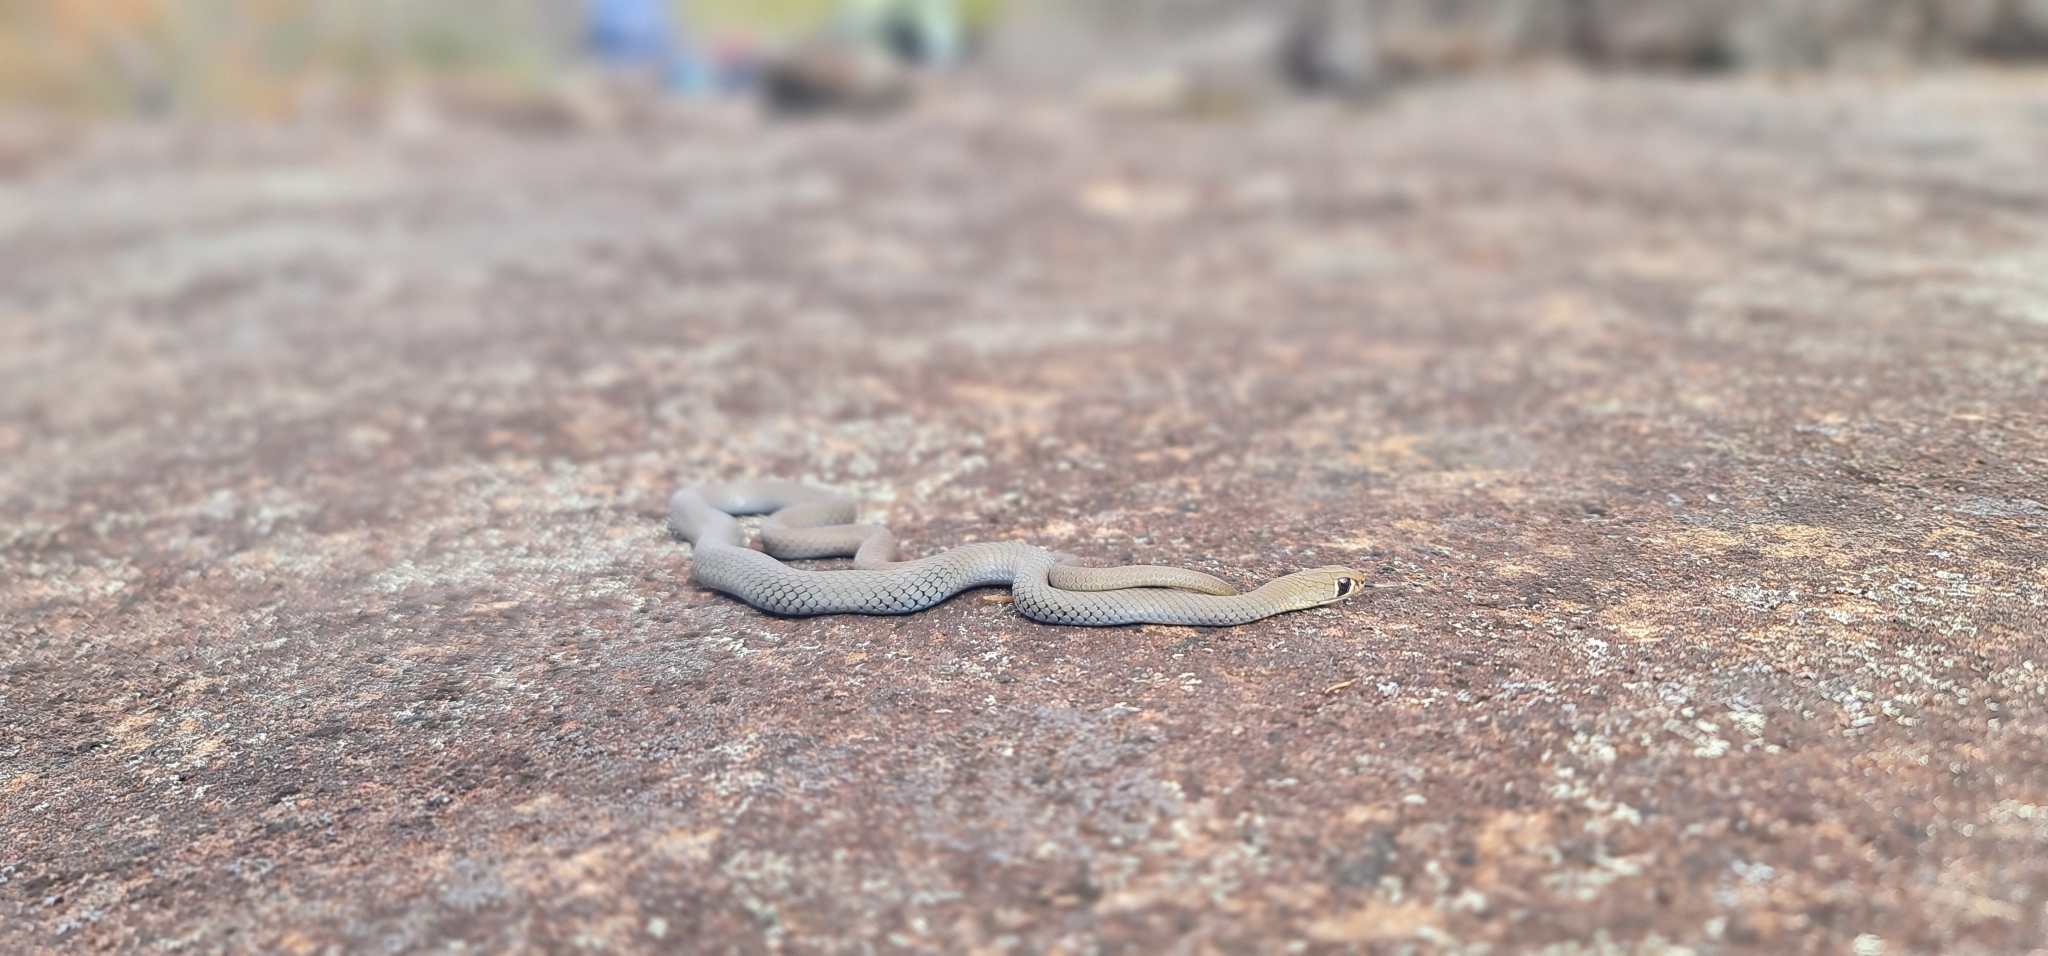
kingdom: Animalia
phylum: Chordata
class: Squamata
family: Elapidae
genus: Demansia
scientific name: Demansia psammophis
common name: Yellow-faced whip snake
